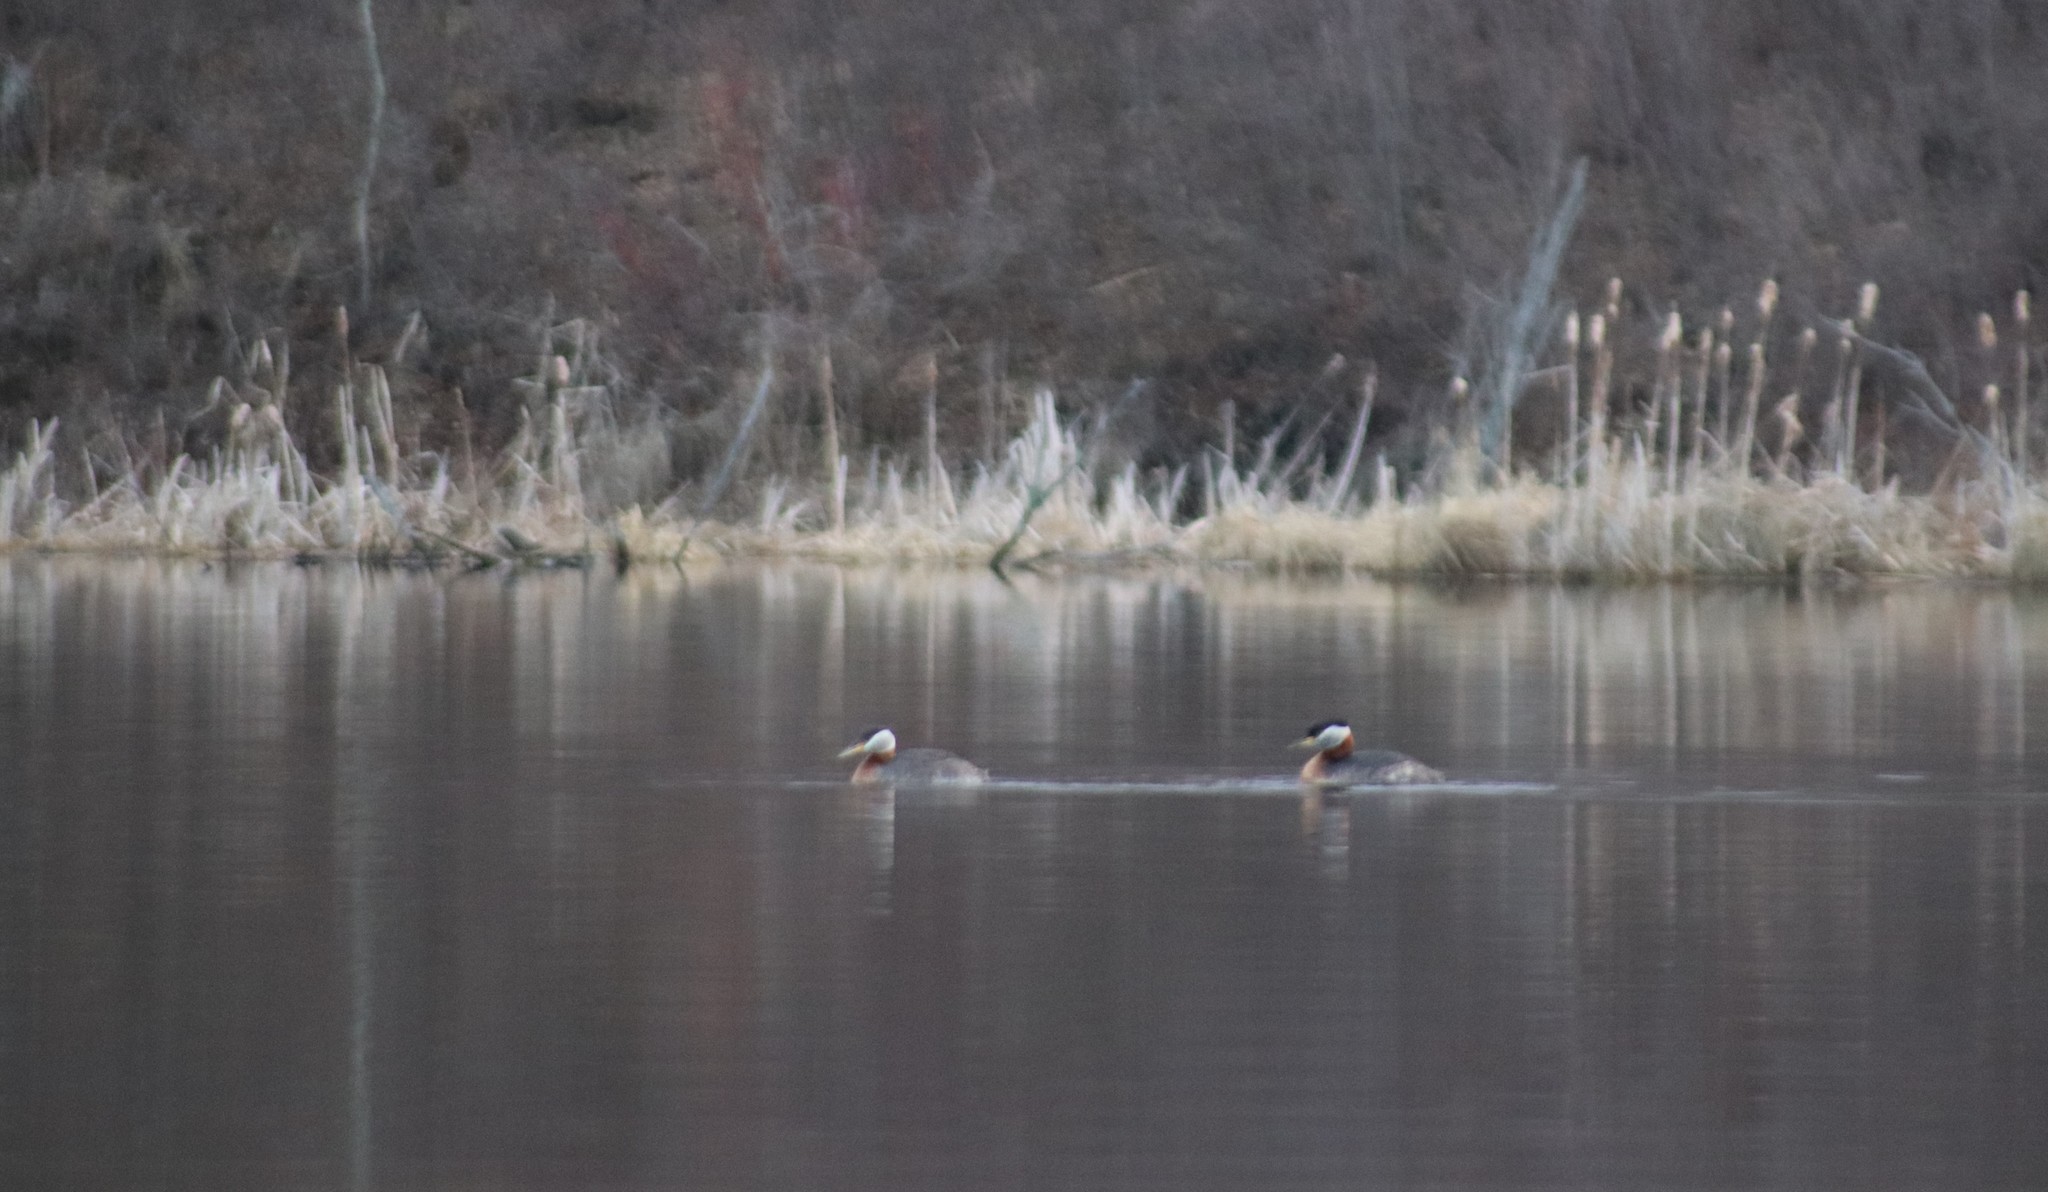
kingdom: Animalia
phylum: Chordata
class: Aves
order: Podicipediformes
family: Podicipedidae
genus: Podiceps
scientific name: Podiceps grisegena
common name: Red-necked grebe
